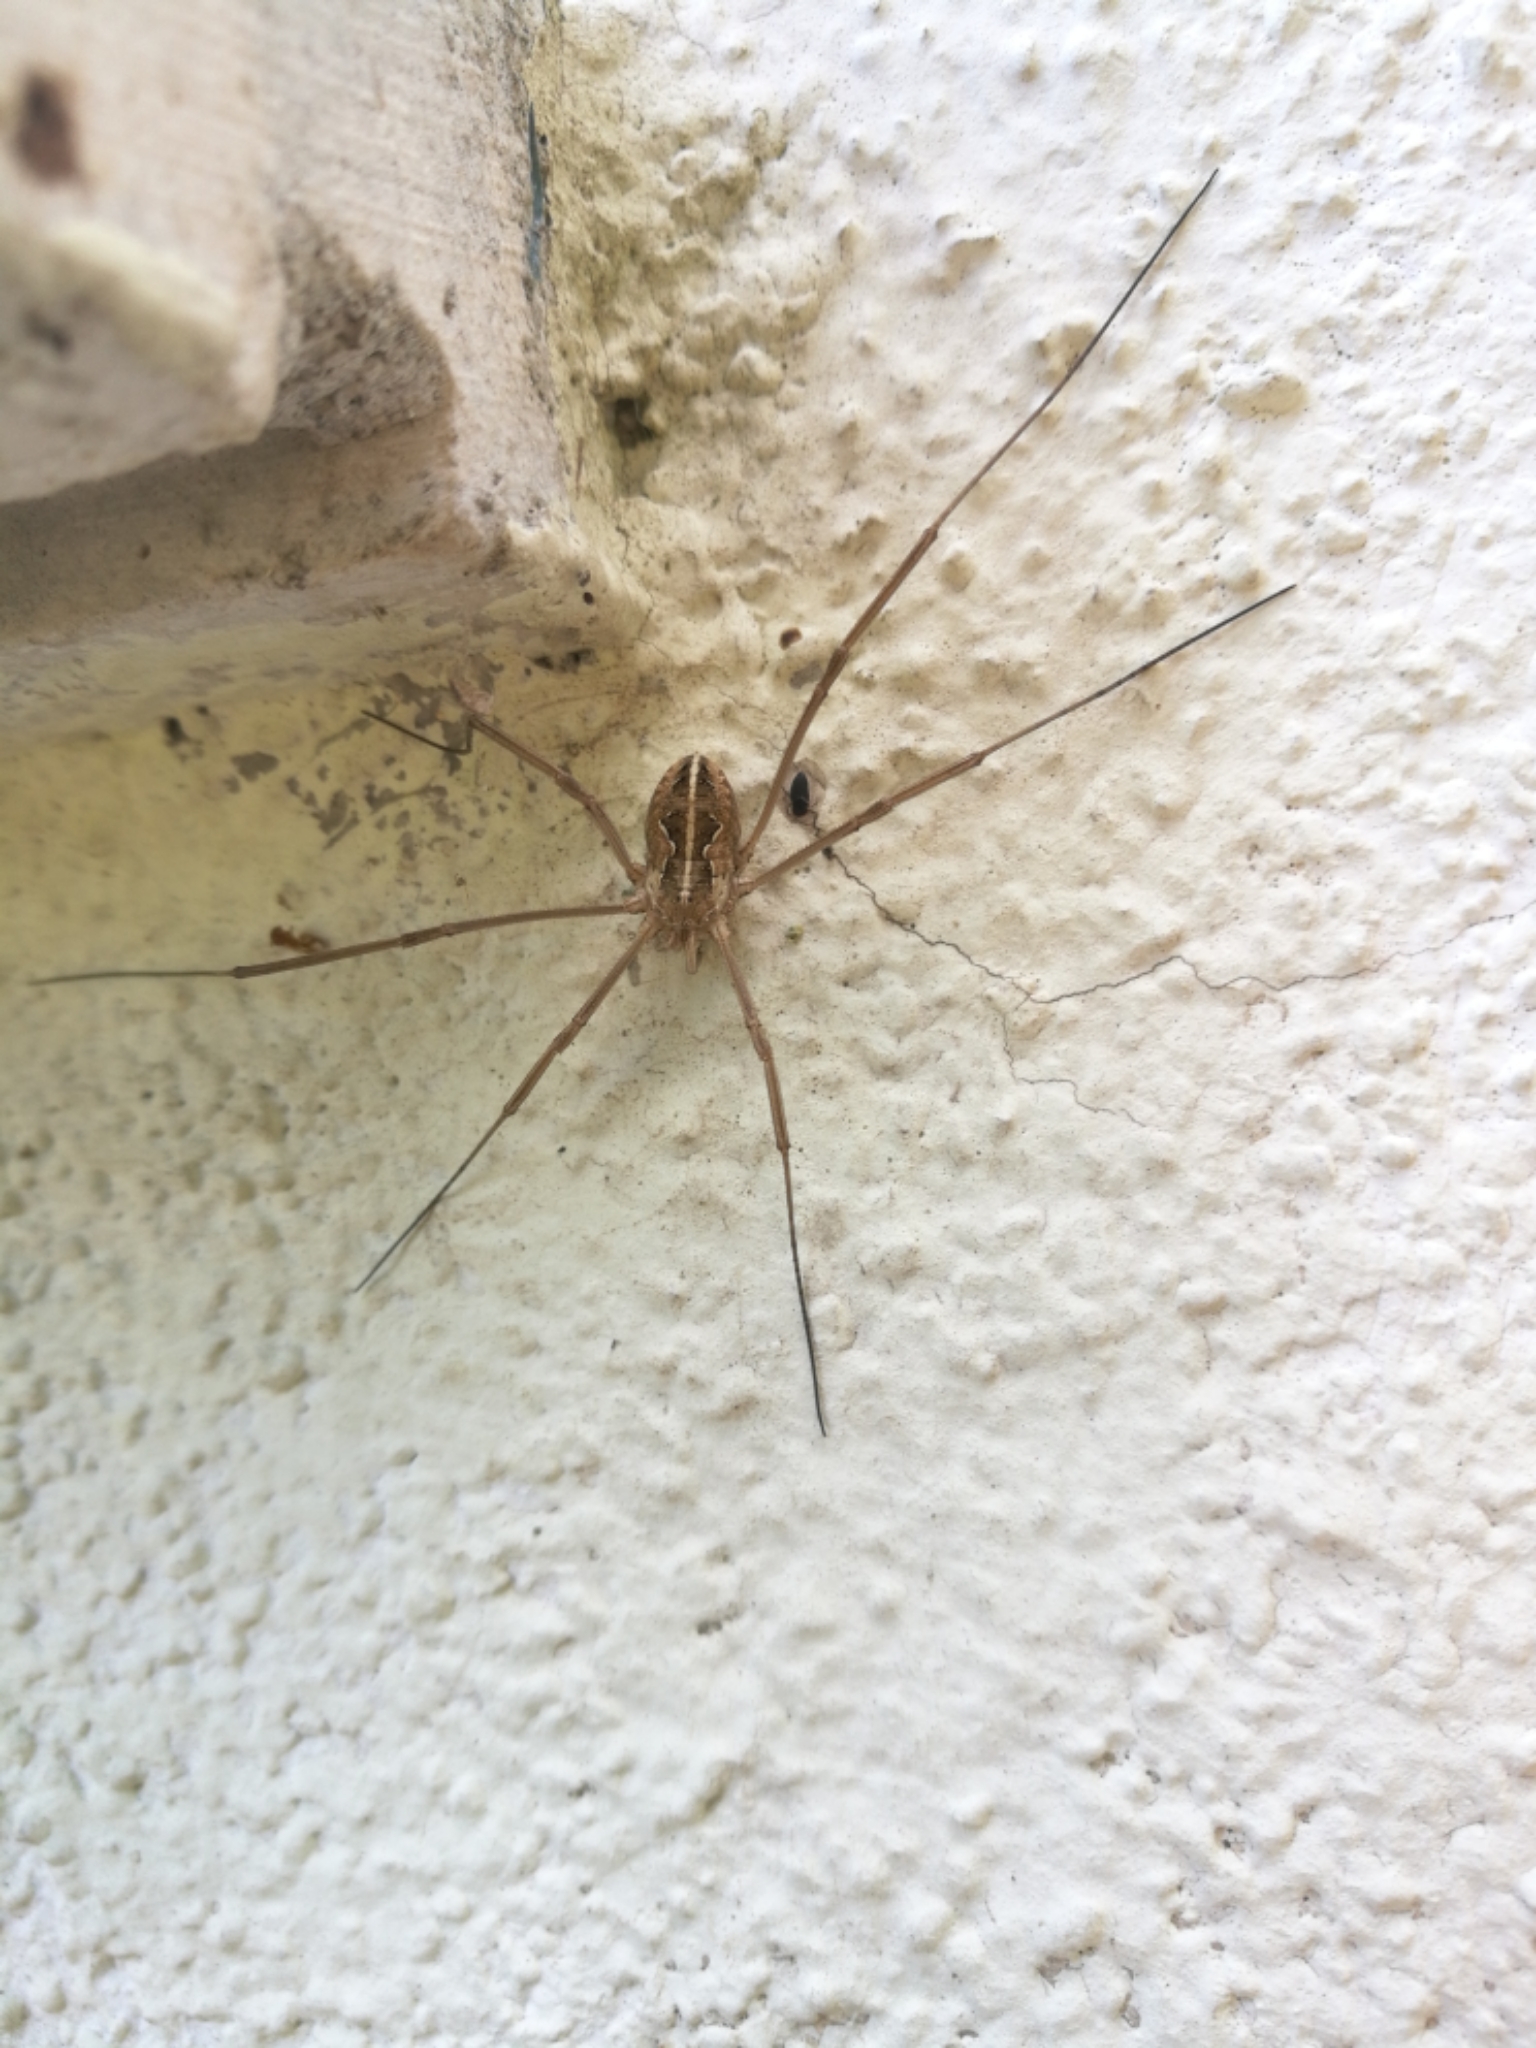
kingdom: Animalia
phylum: Arthropoda
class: Arachnida
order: Opiliones
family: Phalangiidae
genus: Metaphalangium
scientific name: Metaphalangium cirtanum
